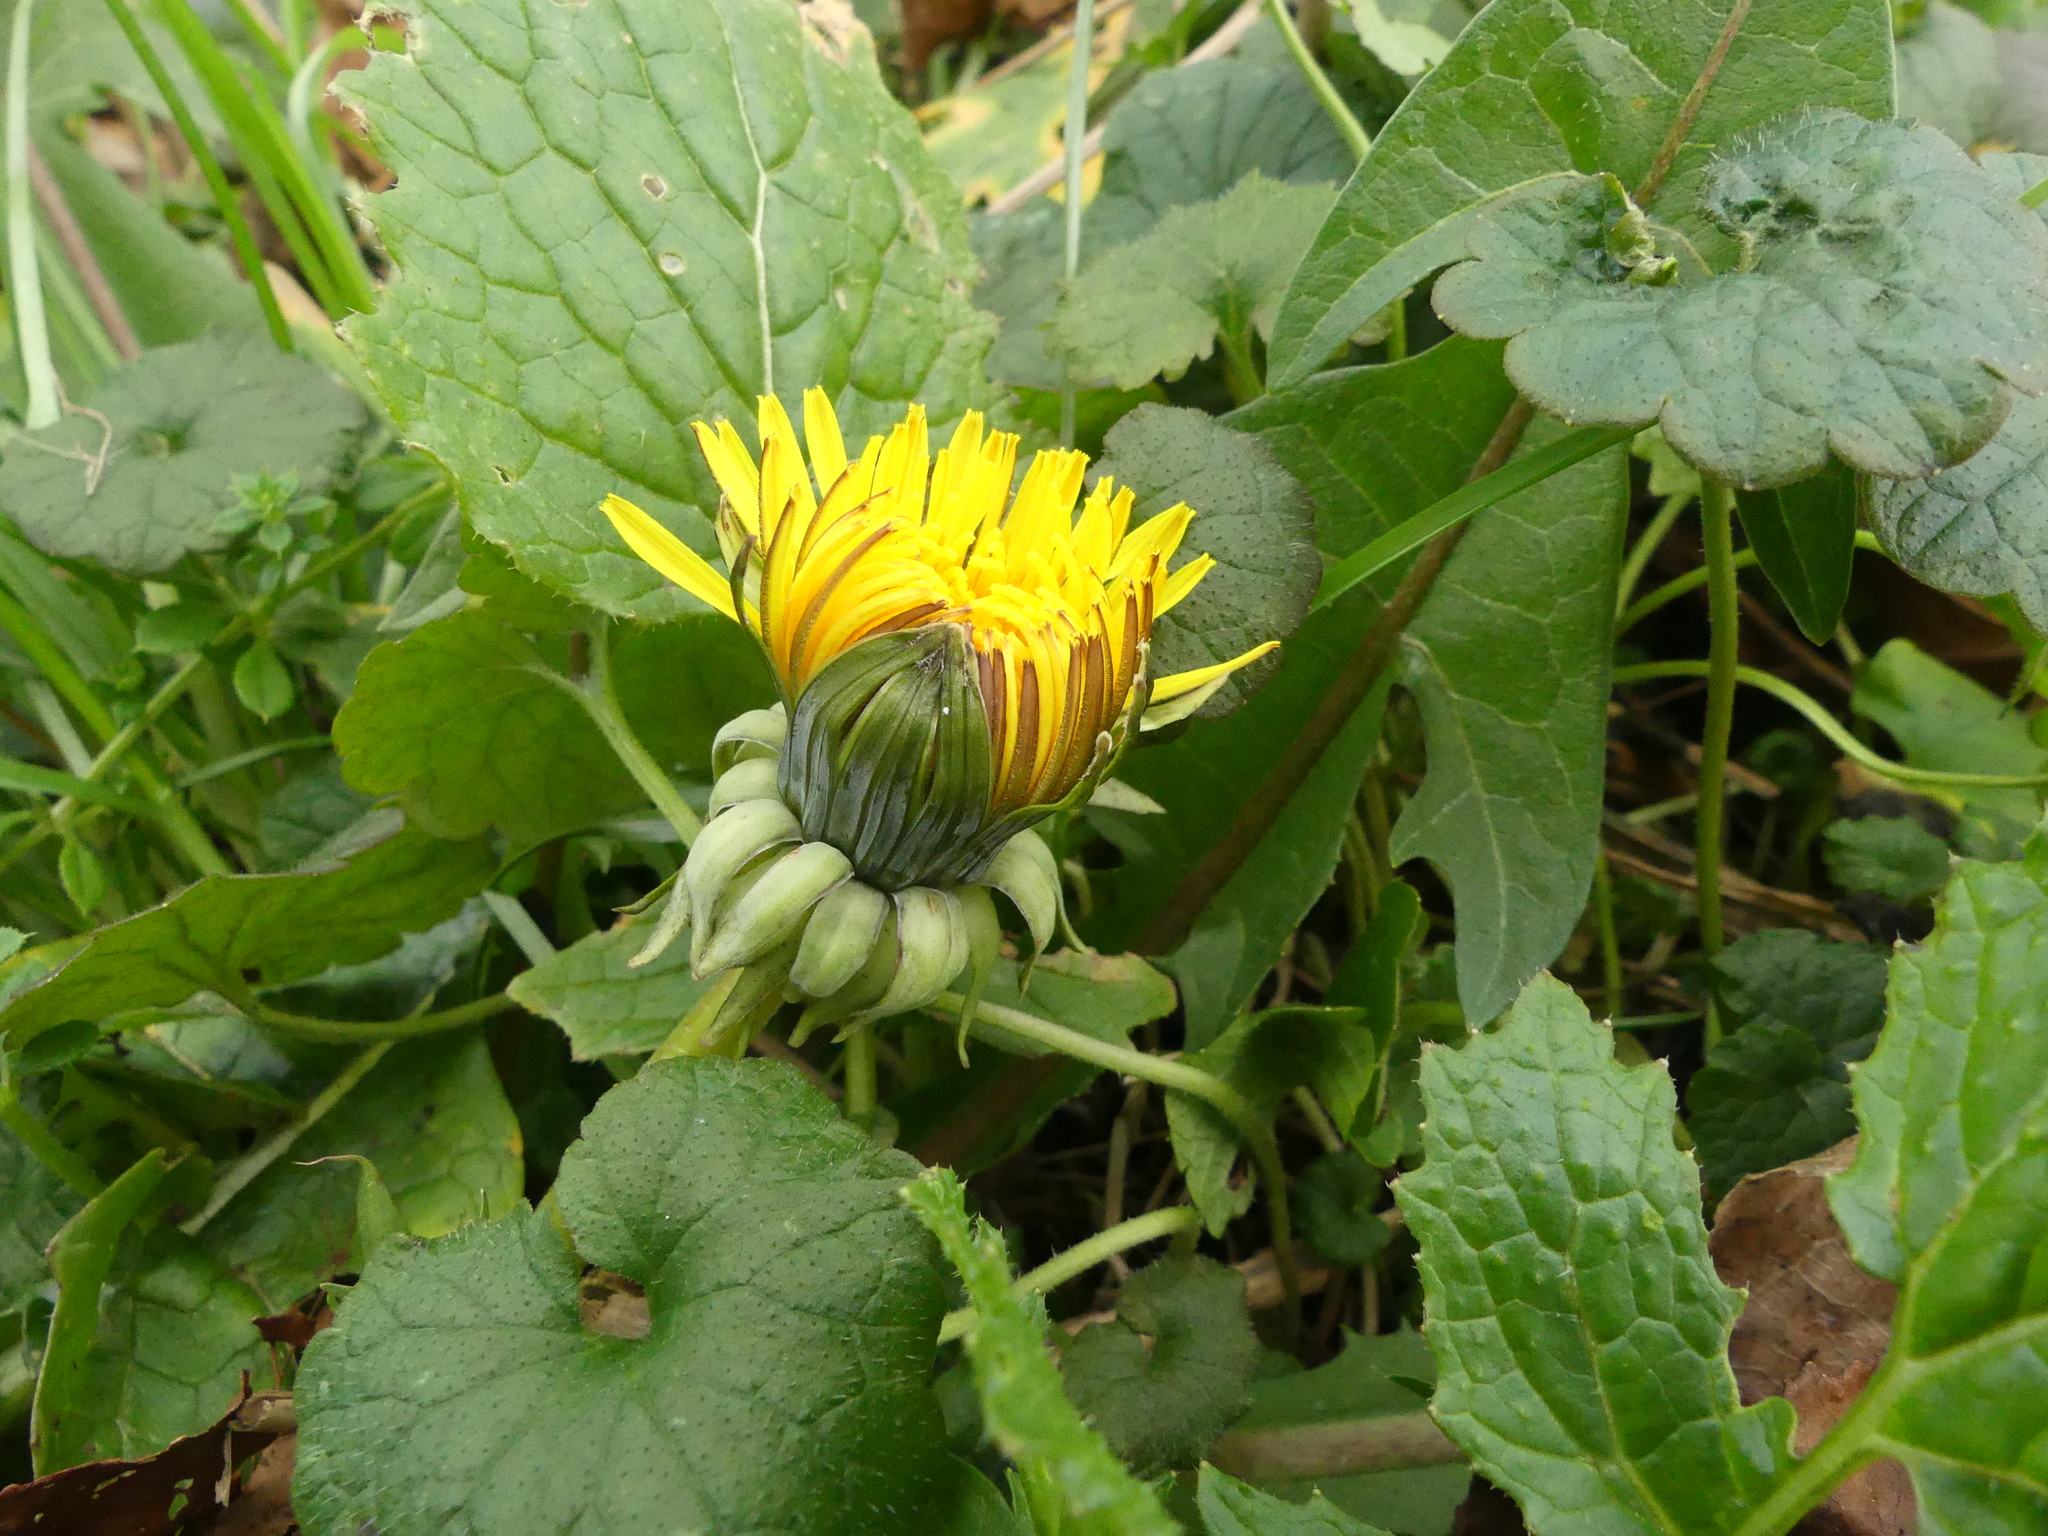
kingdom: Plantae
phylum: Tracheophyta
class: Magnoliopsida
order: Asterales
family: Asteraceae
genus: Taraxacum
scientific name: Taraxacum officinale
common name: Common dandelion
